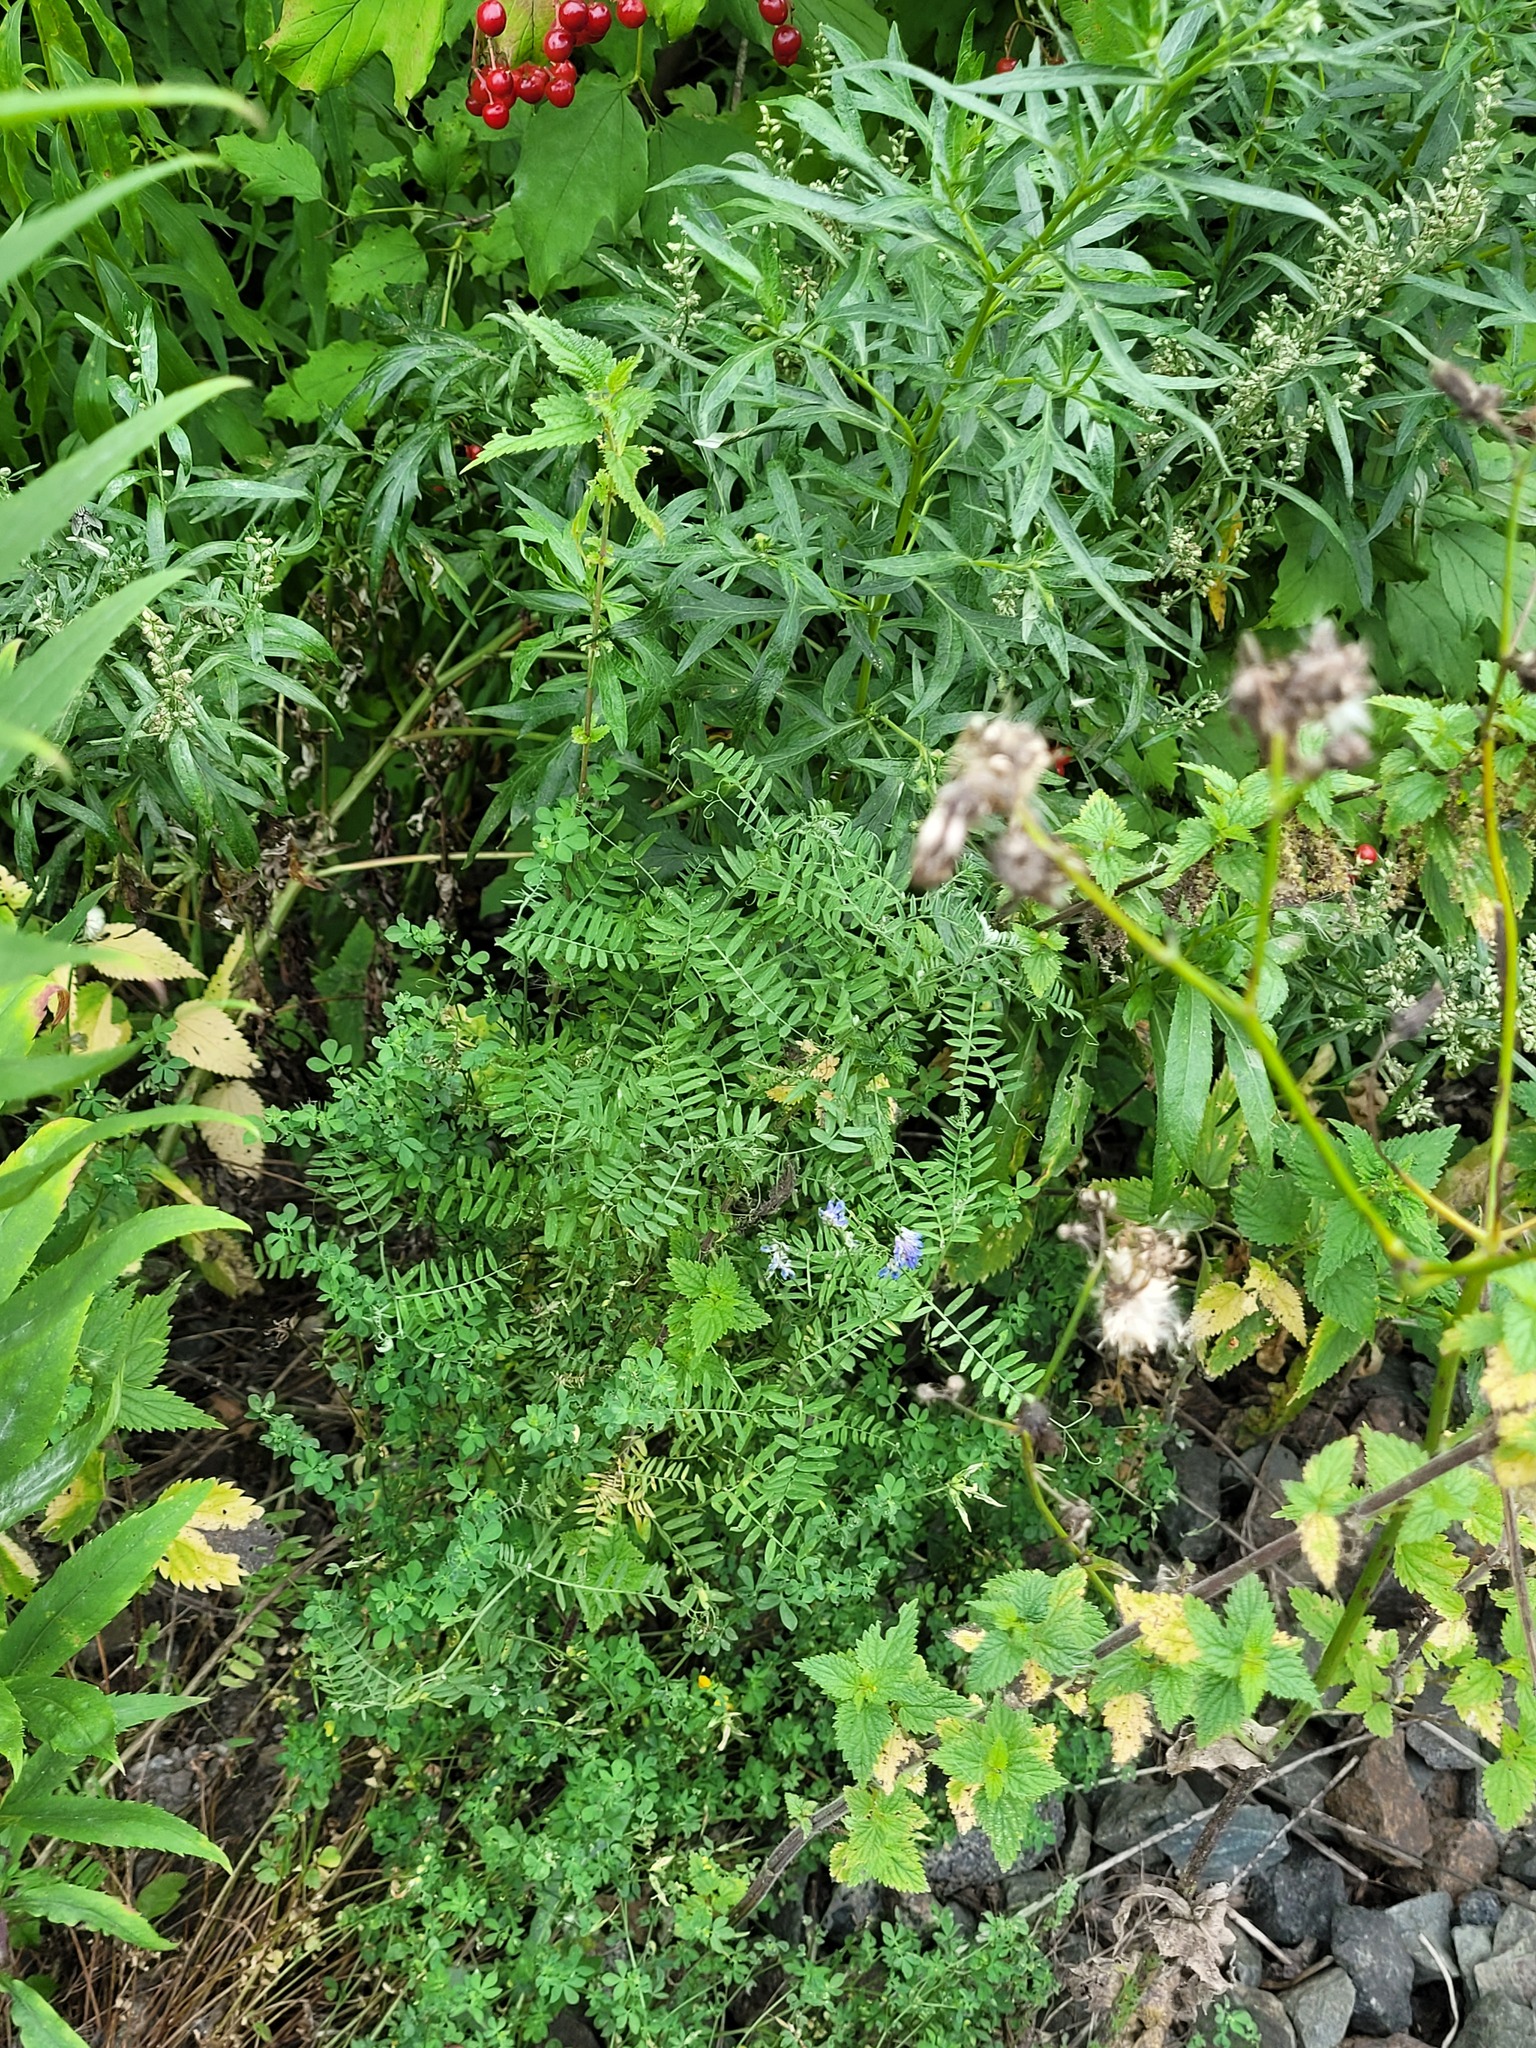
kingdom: Plantae
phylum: Tracheophyta
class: Magnoliopsida
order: Fabales
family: Fabaceae
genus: Vicia
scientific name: Vicia cracca
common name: Bird vetch
